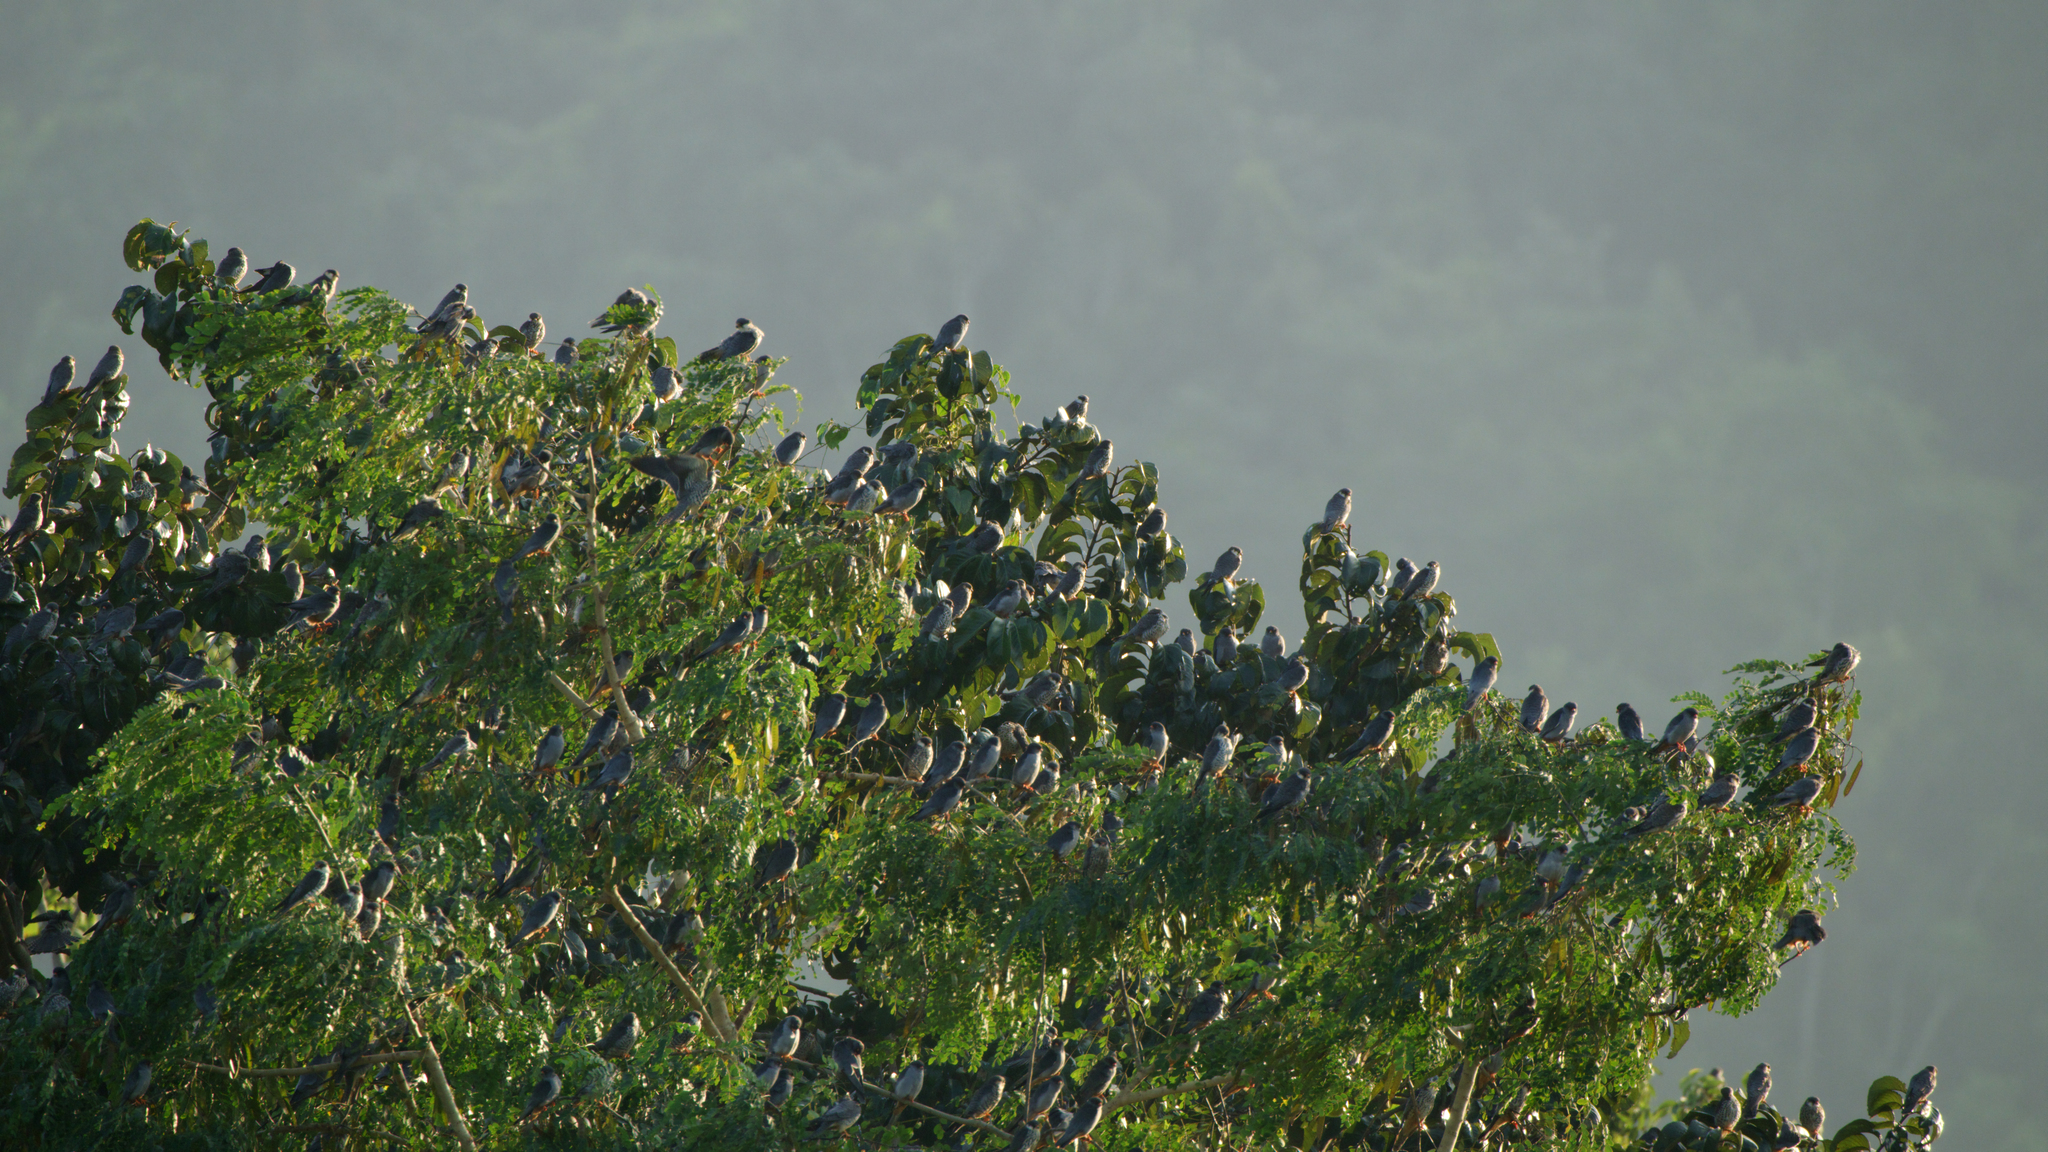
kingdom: Animalia
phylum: Chordata
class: Aves
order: Falconiformes
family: Falconidae
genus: Falco
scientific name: Falco amurensis
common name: Amur falcon
